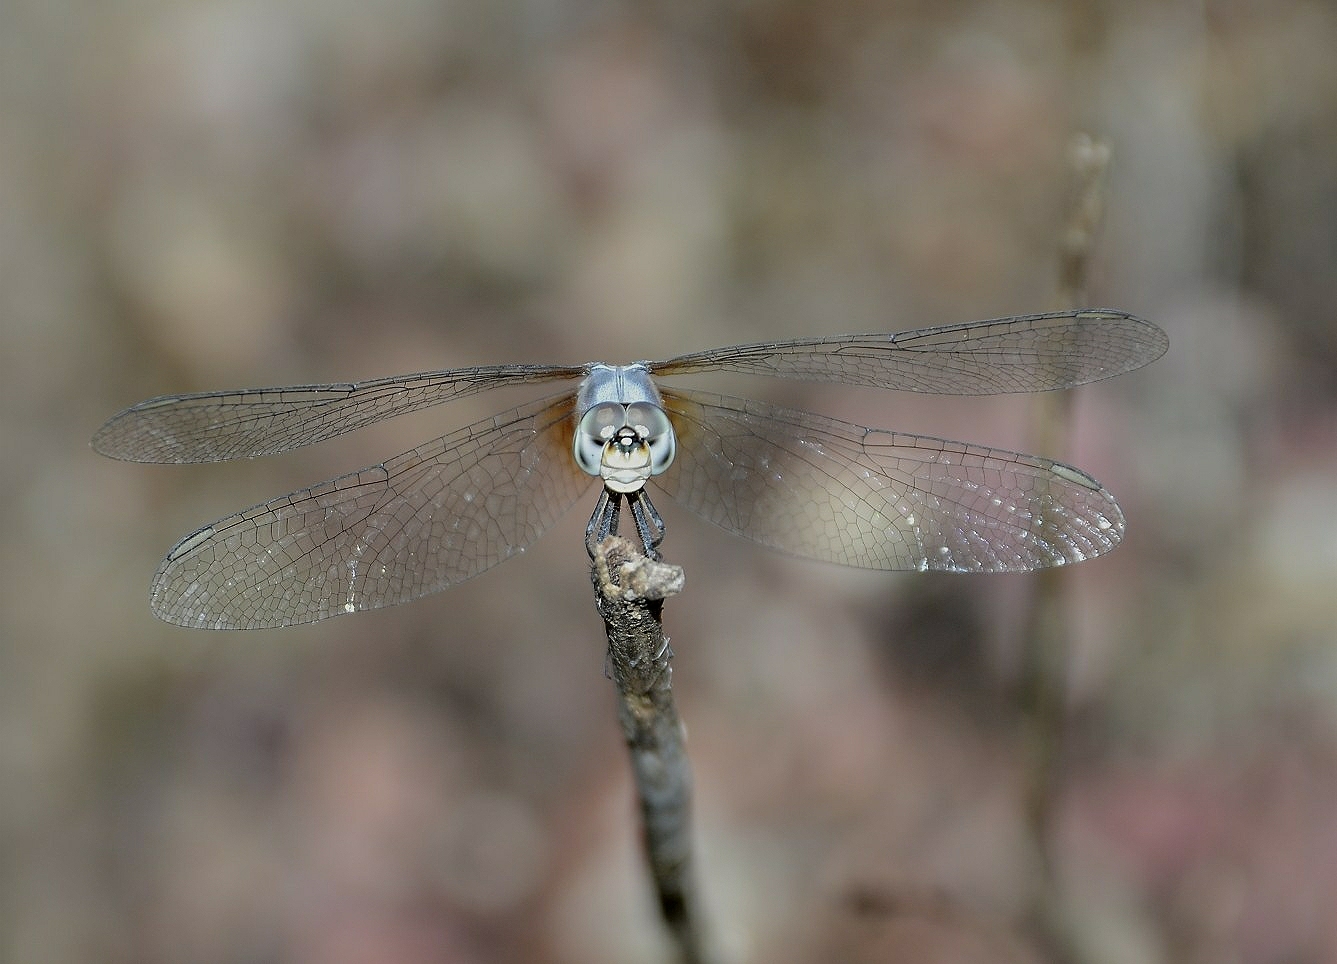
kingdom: Animalia
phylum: Arthropoda
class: Insecta
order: Odonata
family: Libellulidae
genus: Brachydiplax
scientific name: Brachydiplax chalybea
